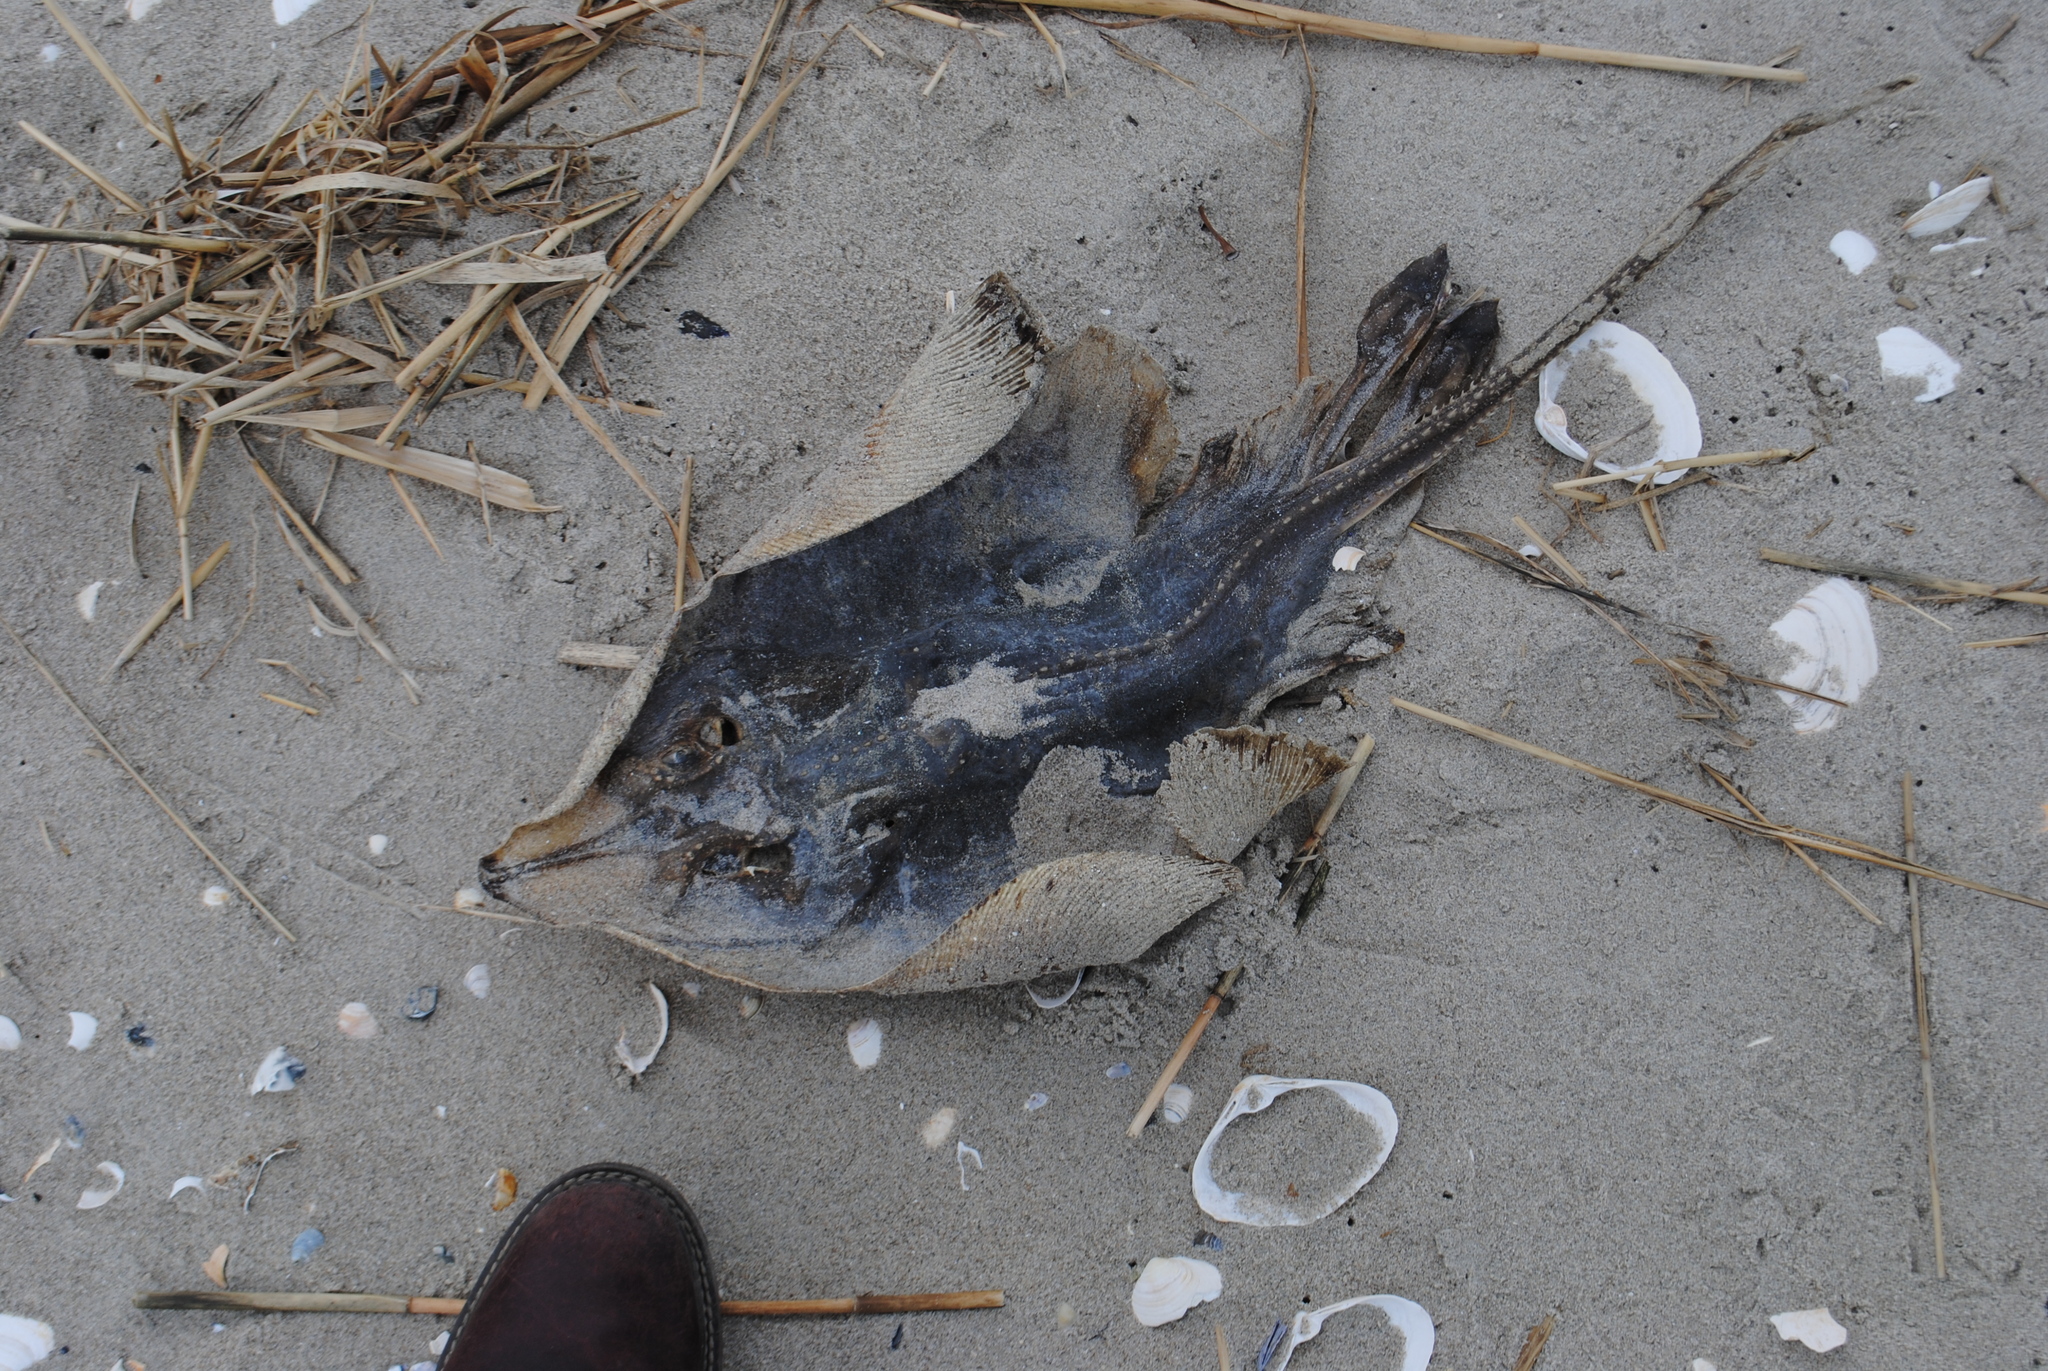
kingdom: Animalia
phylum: Chordata
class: Elasmobranchii
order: Rajiformes
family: Rajidae
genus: Raja
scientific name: Raja eglanteria
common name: Clearnose skate
